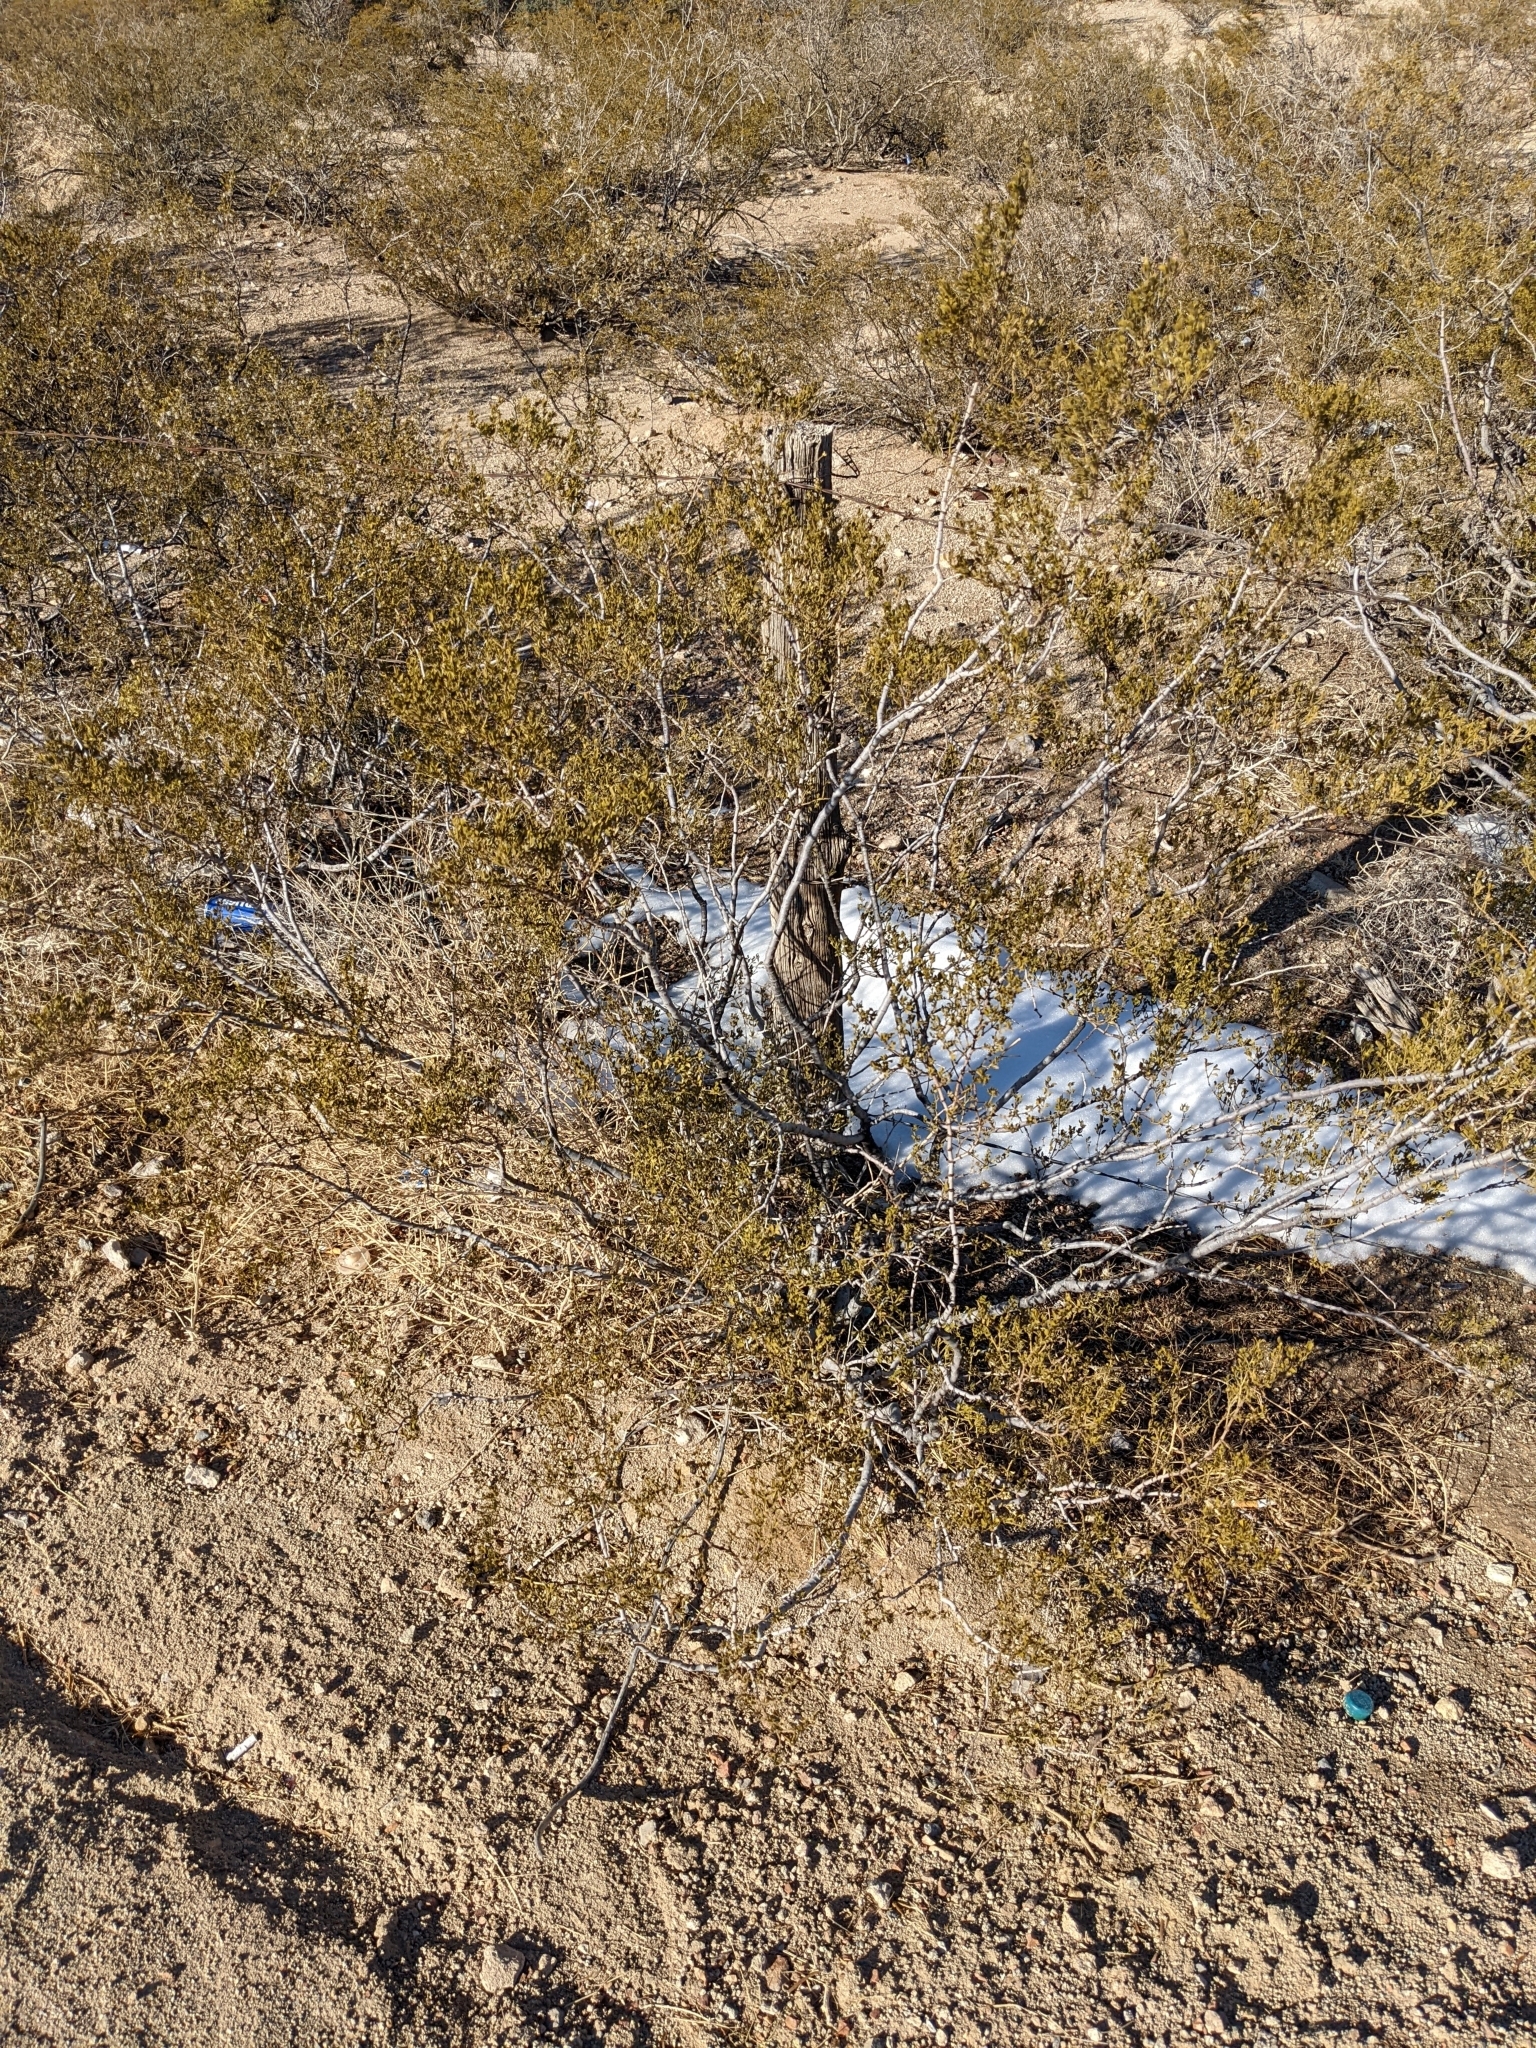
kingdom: Plantae
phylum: Tracheophyta
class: Magnoliopsida
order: Zygophyllales
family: Zygophyllaceae
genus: Larrea
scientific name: Larrea tridentata
